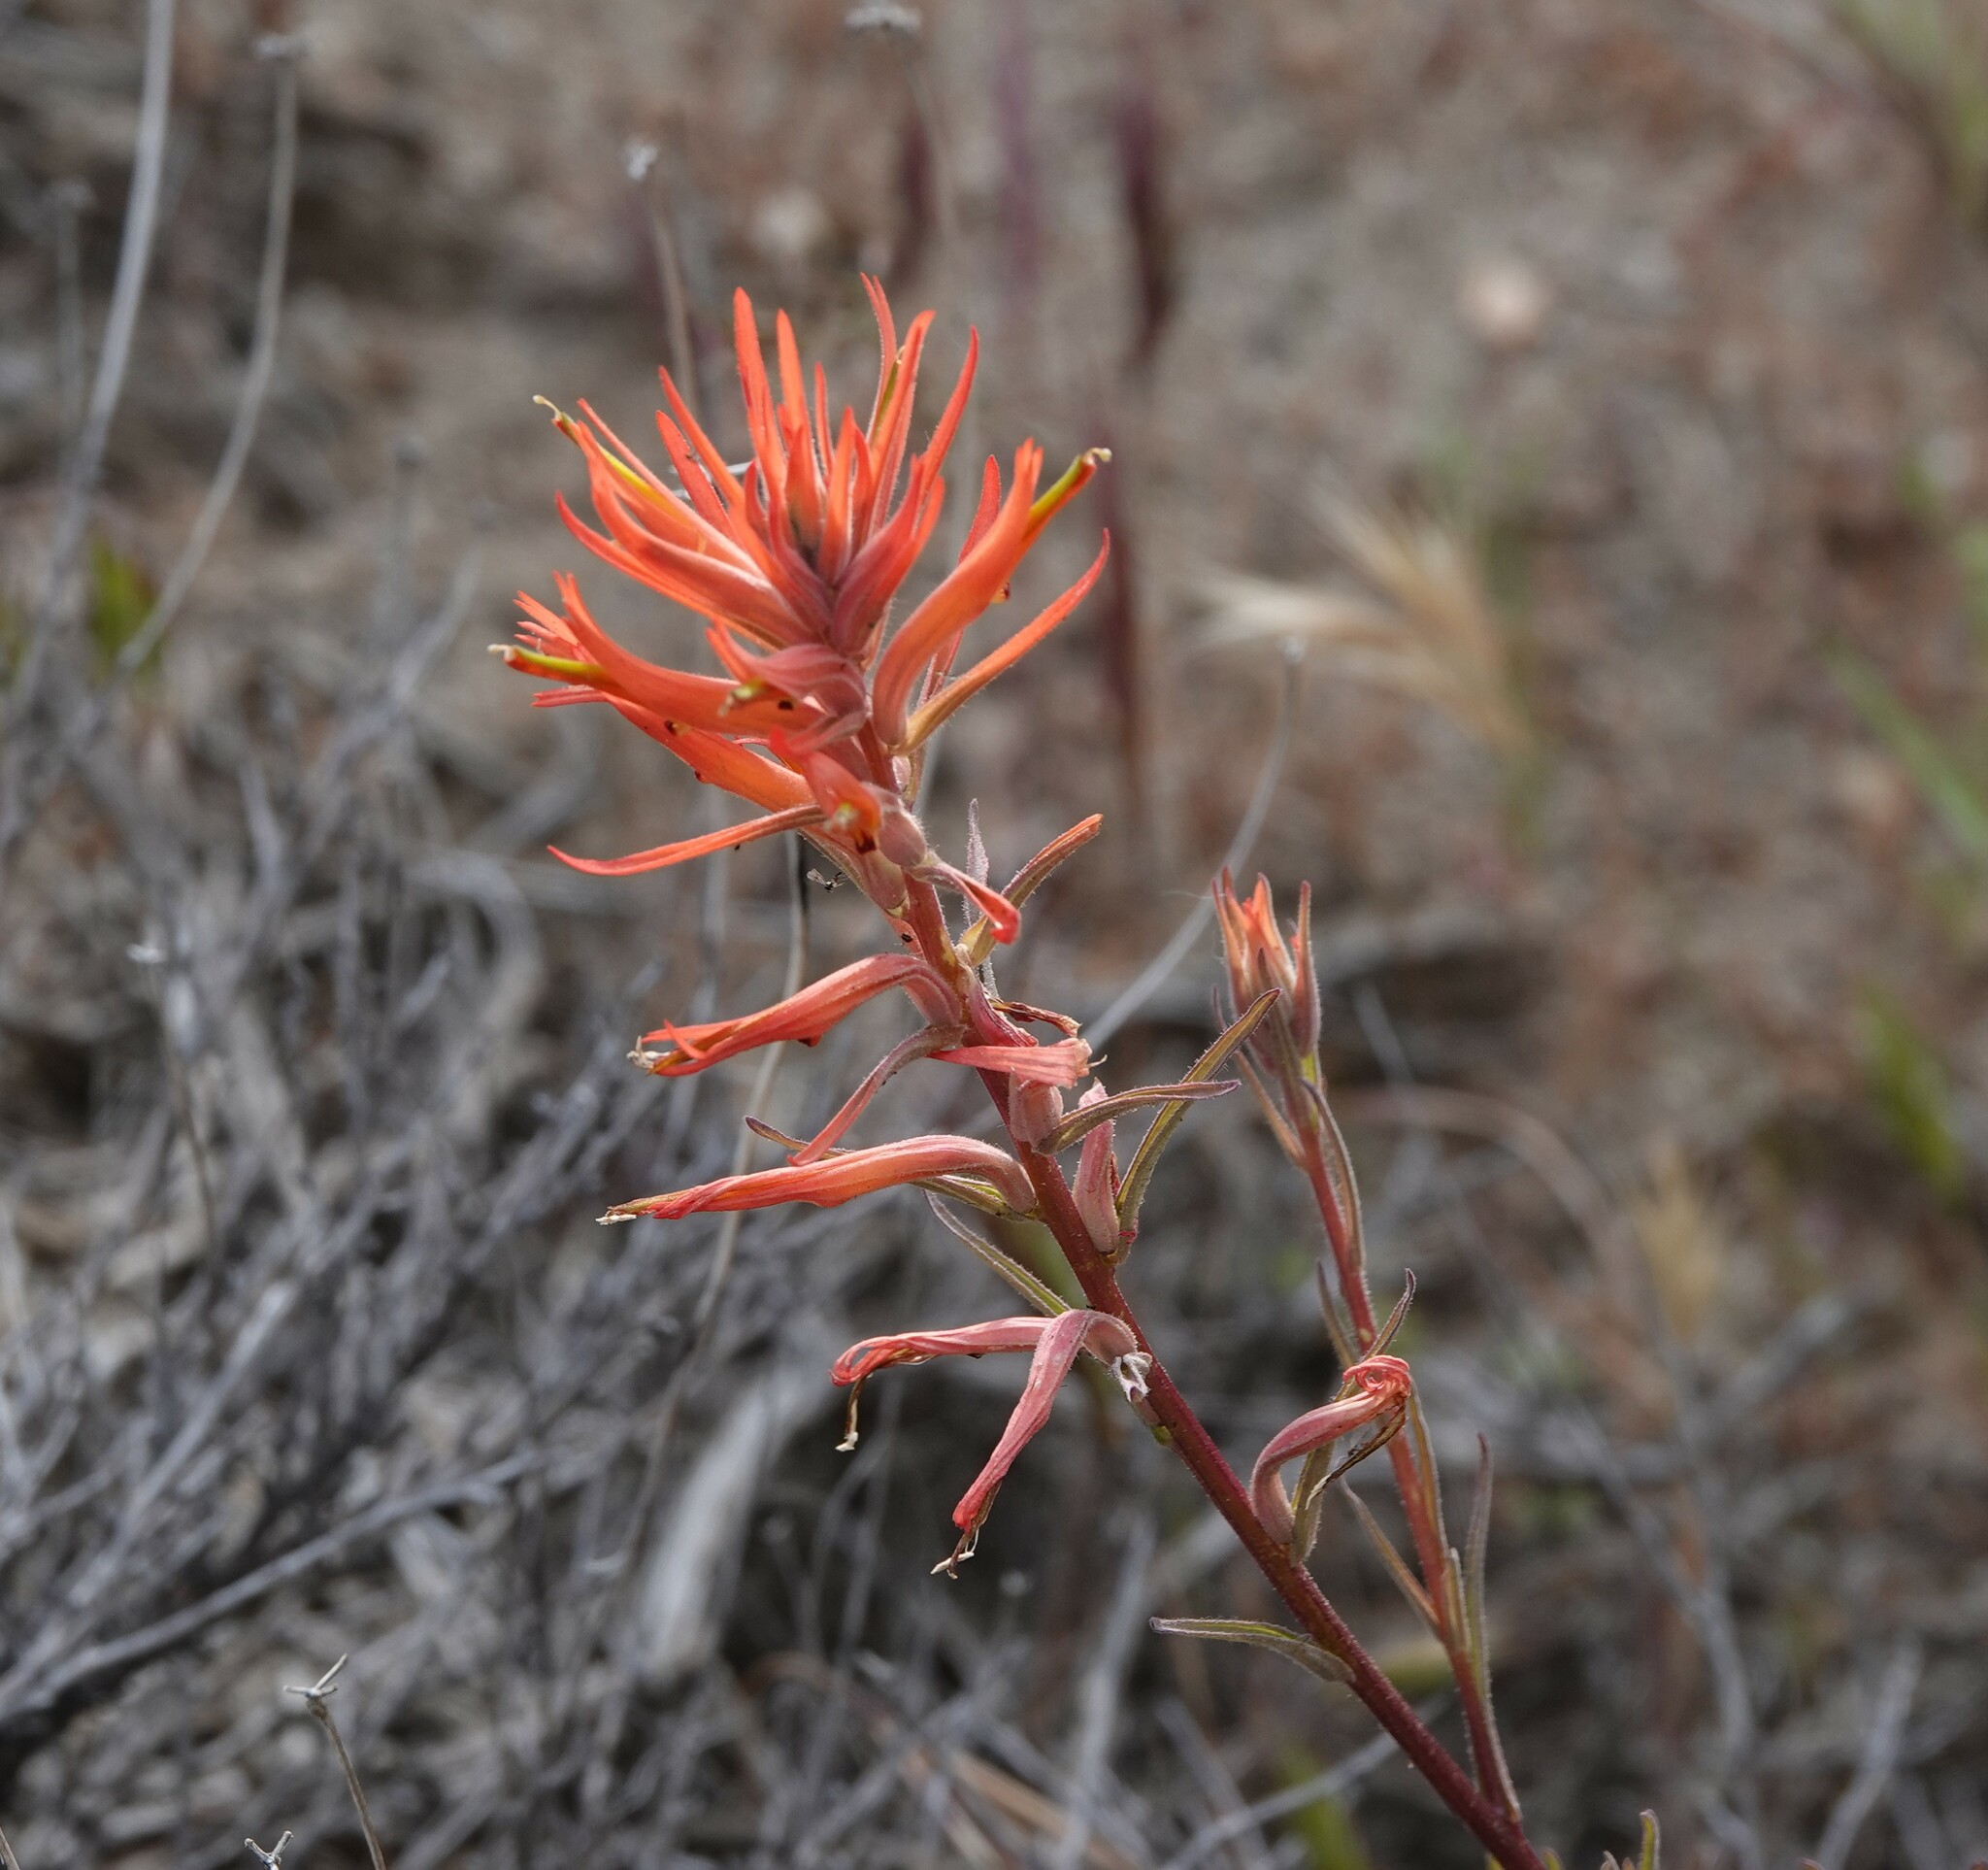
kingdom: Plantae
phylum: Tracheophyta
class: Magnoliopsida
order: Lamiales
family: Orobanchaceae
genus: Castilleja
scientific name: Castilleja subinclusa
